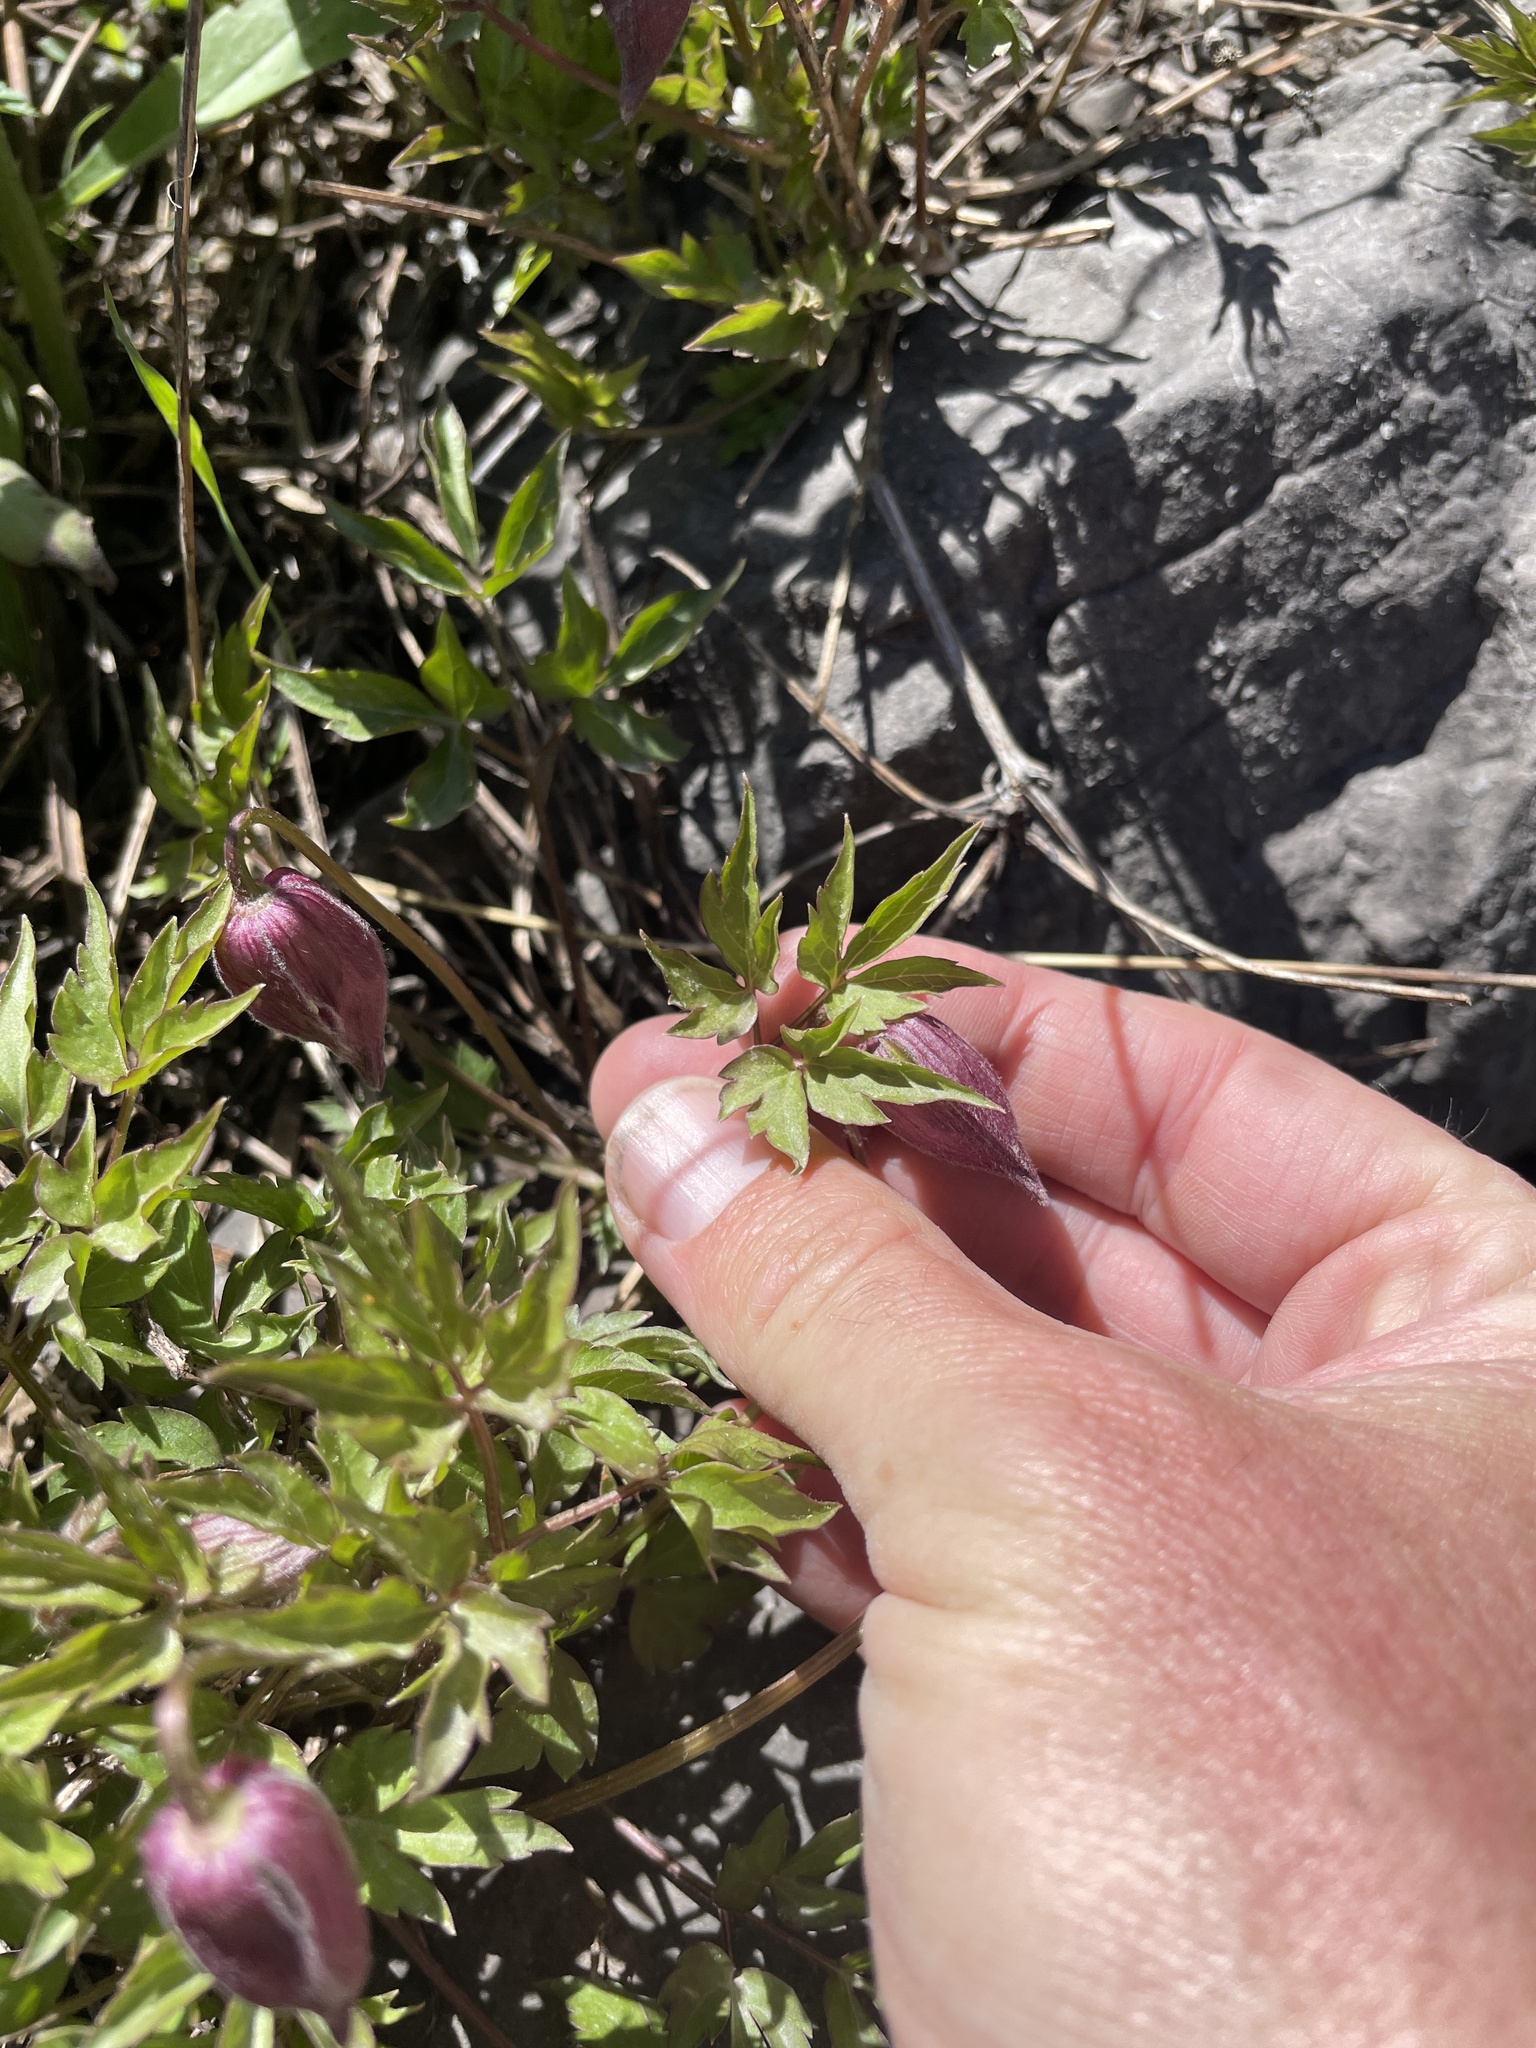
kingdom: Plantae
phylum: Tracheophyta
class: Magnoliopsida
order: Ranunculales
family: Ranunculaceae
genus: Clematis
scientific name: Clematis columbiana
